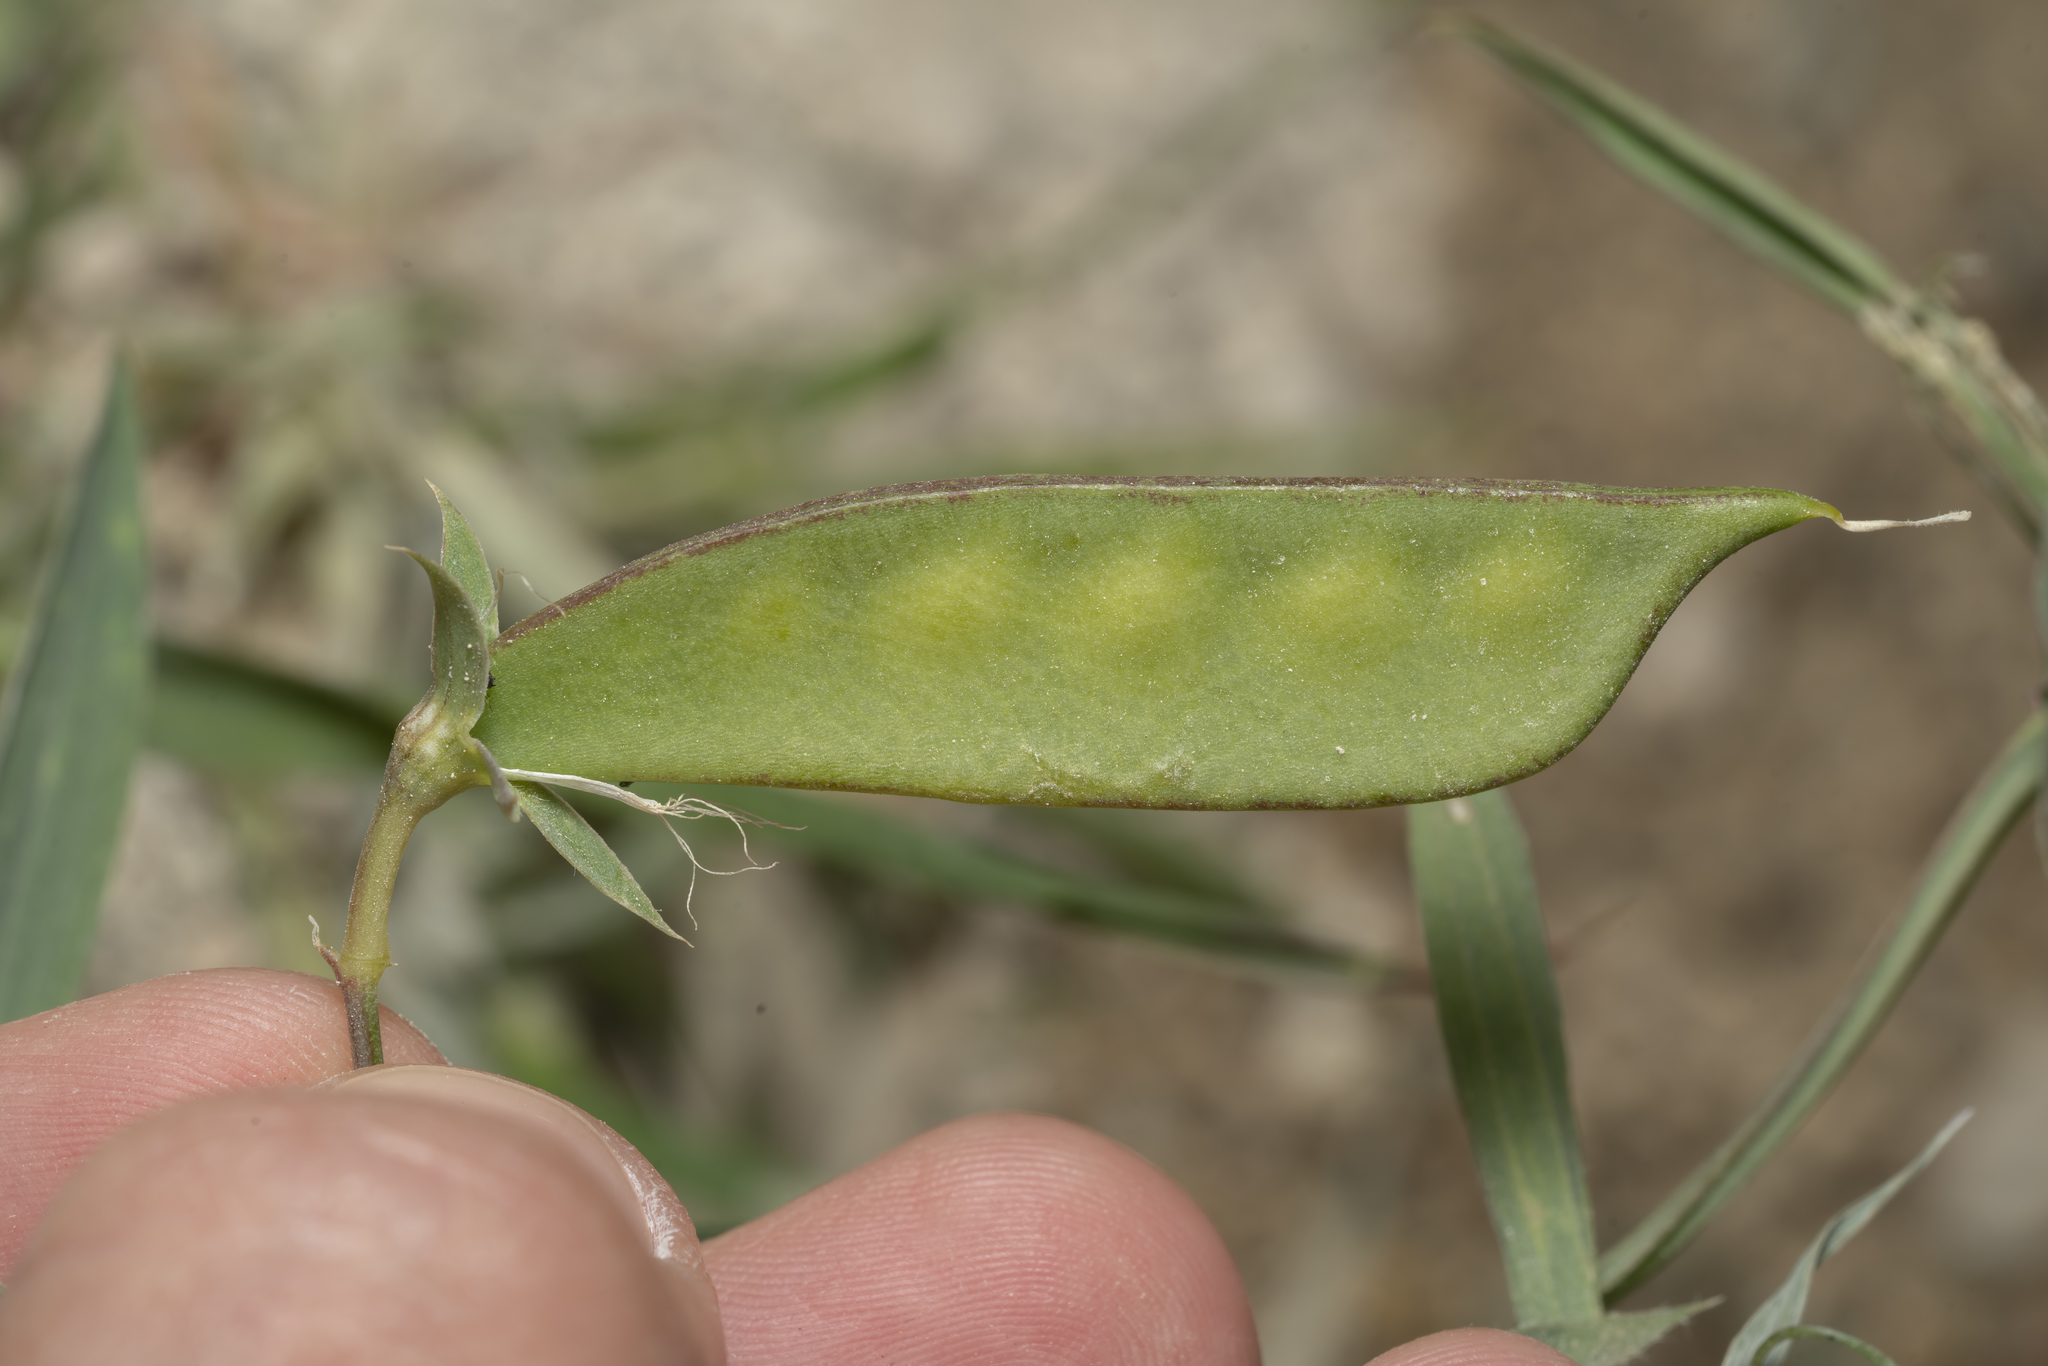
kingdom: Plantae
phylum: Tracheophyta
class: Magnoliopsida
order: Fabales
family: Fabaceae
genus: Lathyrus
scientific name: Lathyrus cicera
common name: Red vetchling
